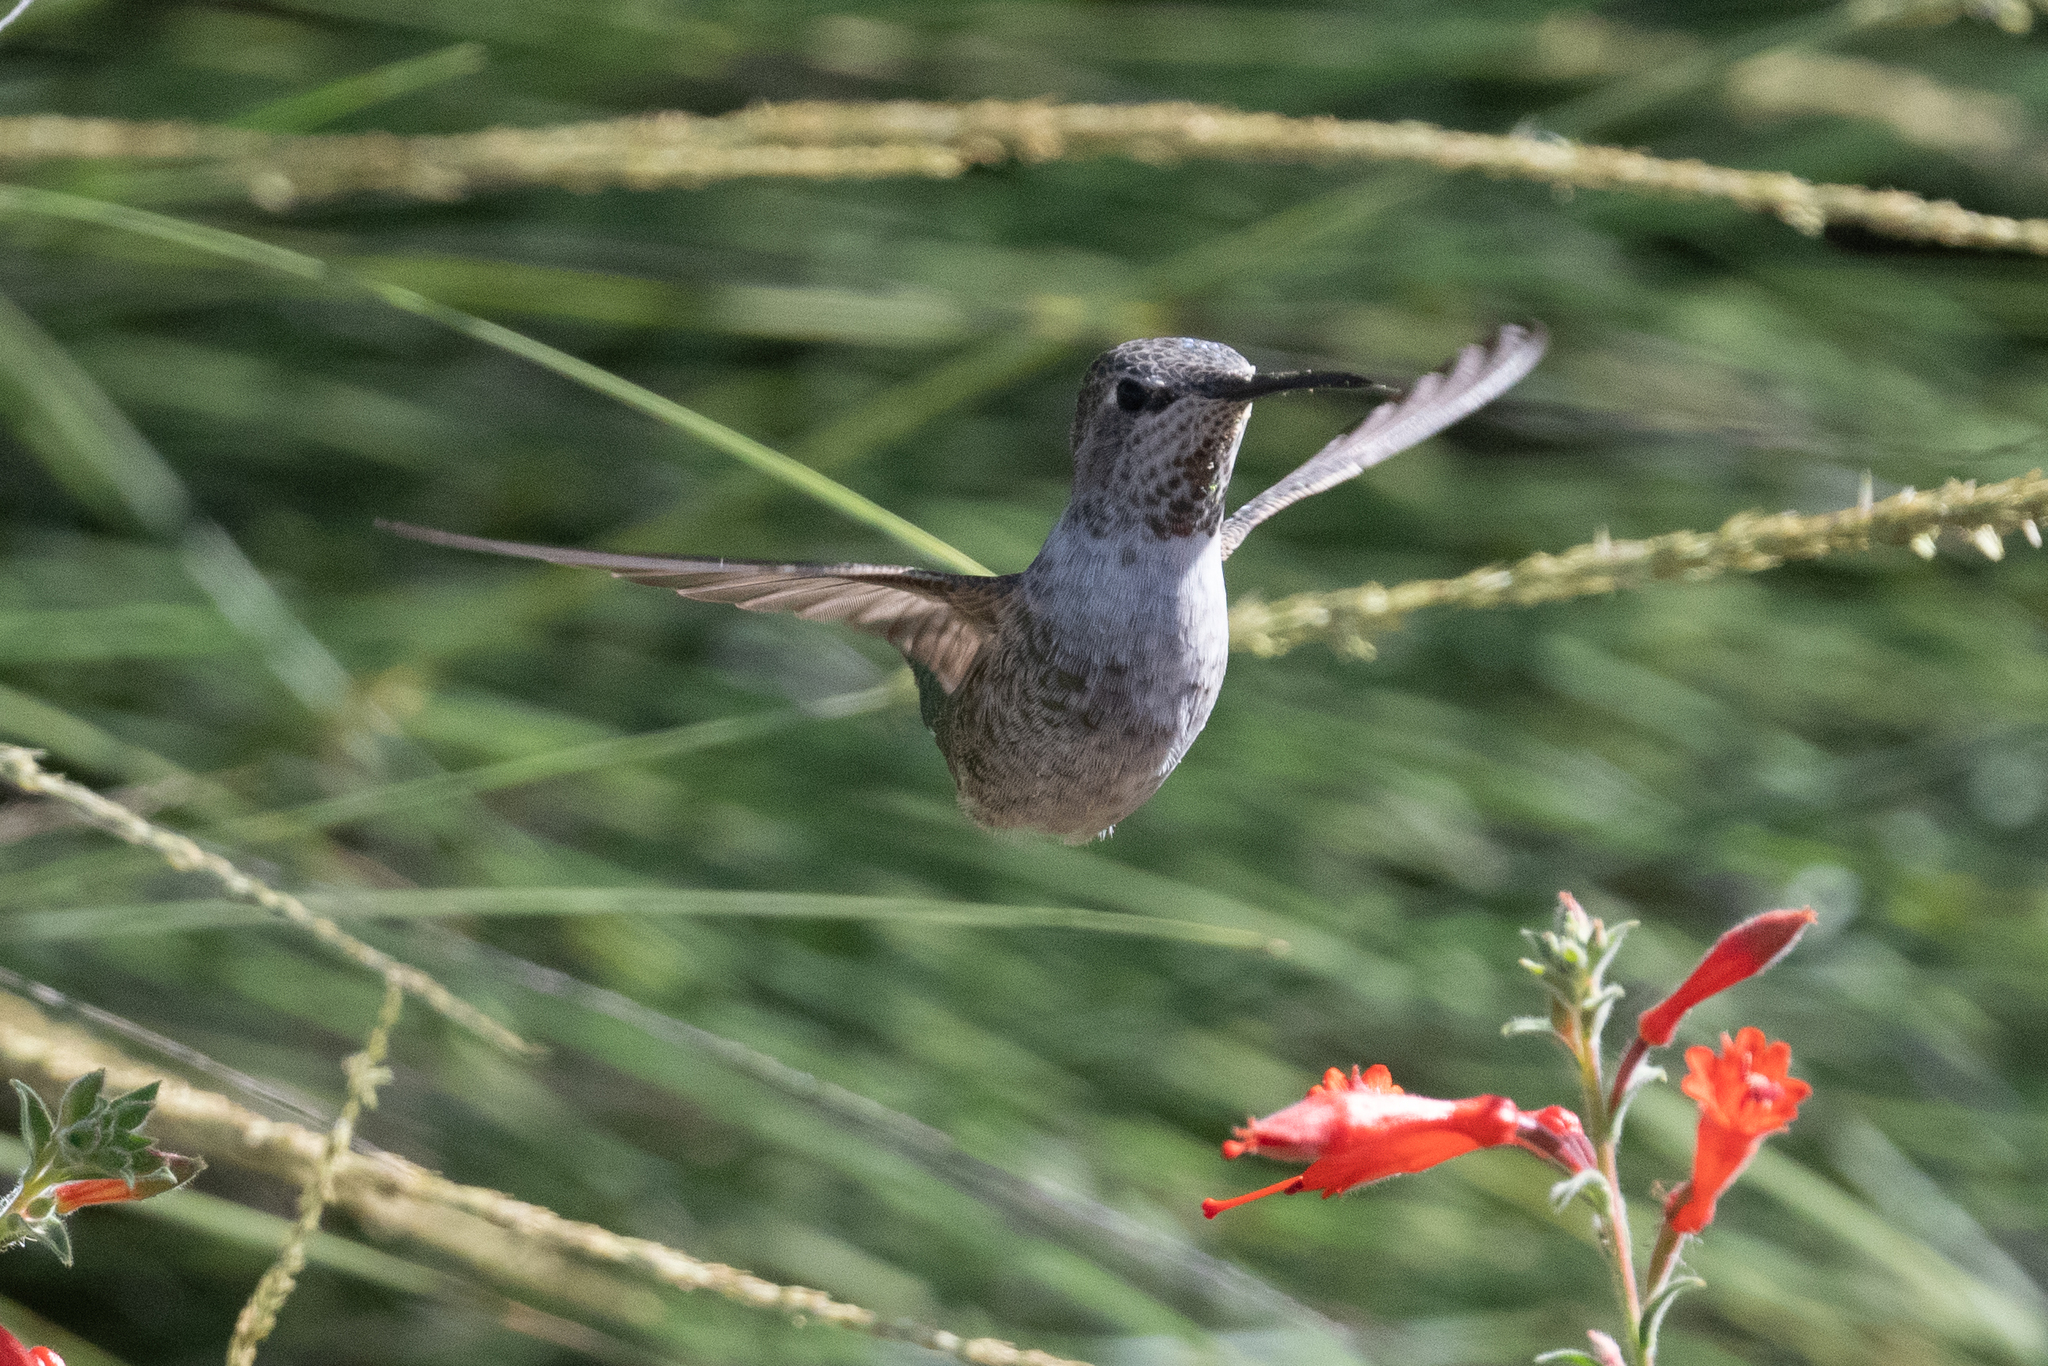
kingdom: Animalia
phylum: Chordata
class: Aves
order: Apodiformes
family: Trochilidae
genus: Calypte
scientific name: Calypte anna
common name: Anna's hummingbird
